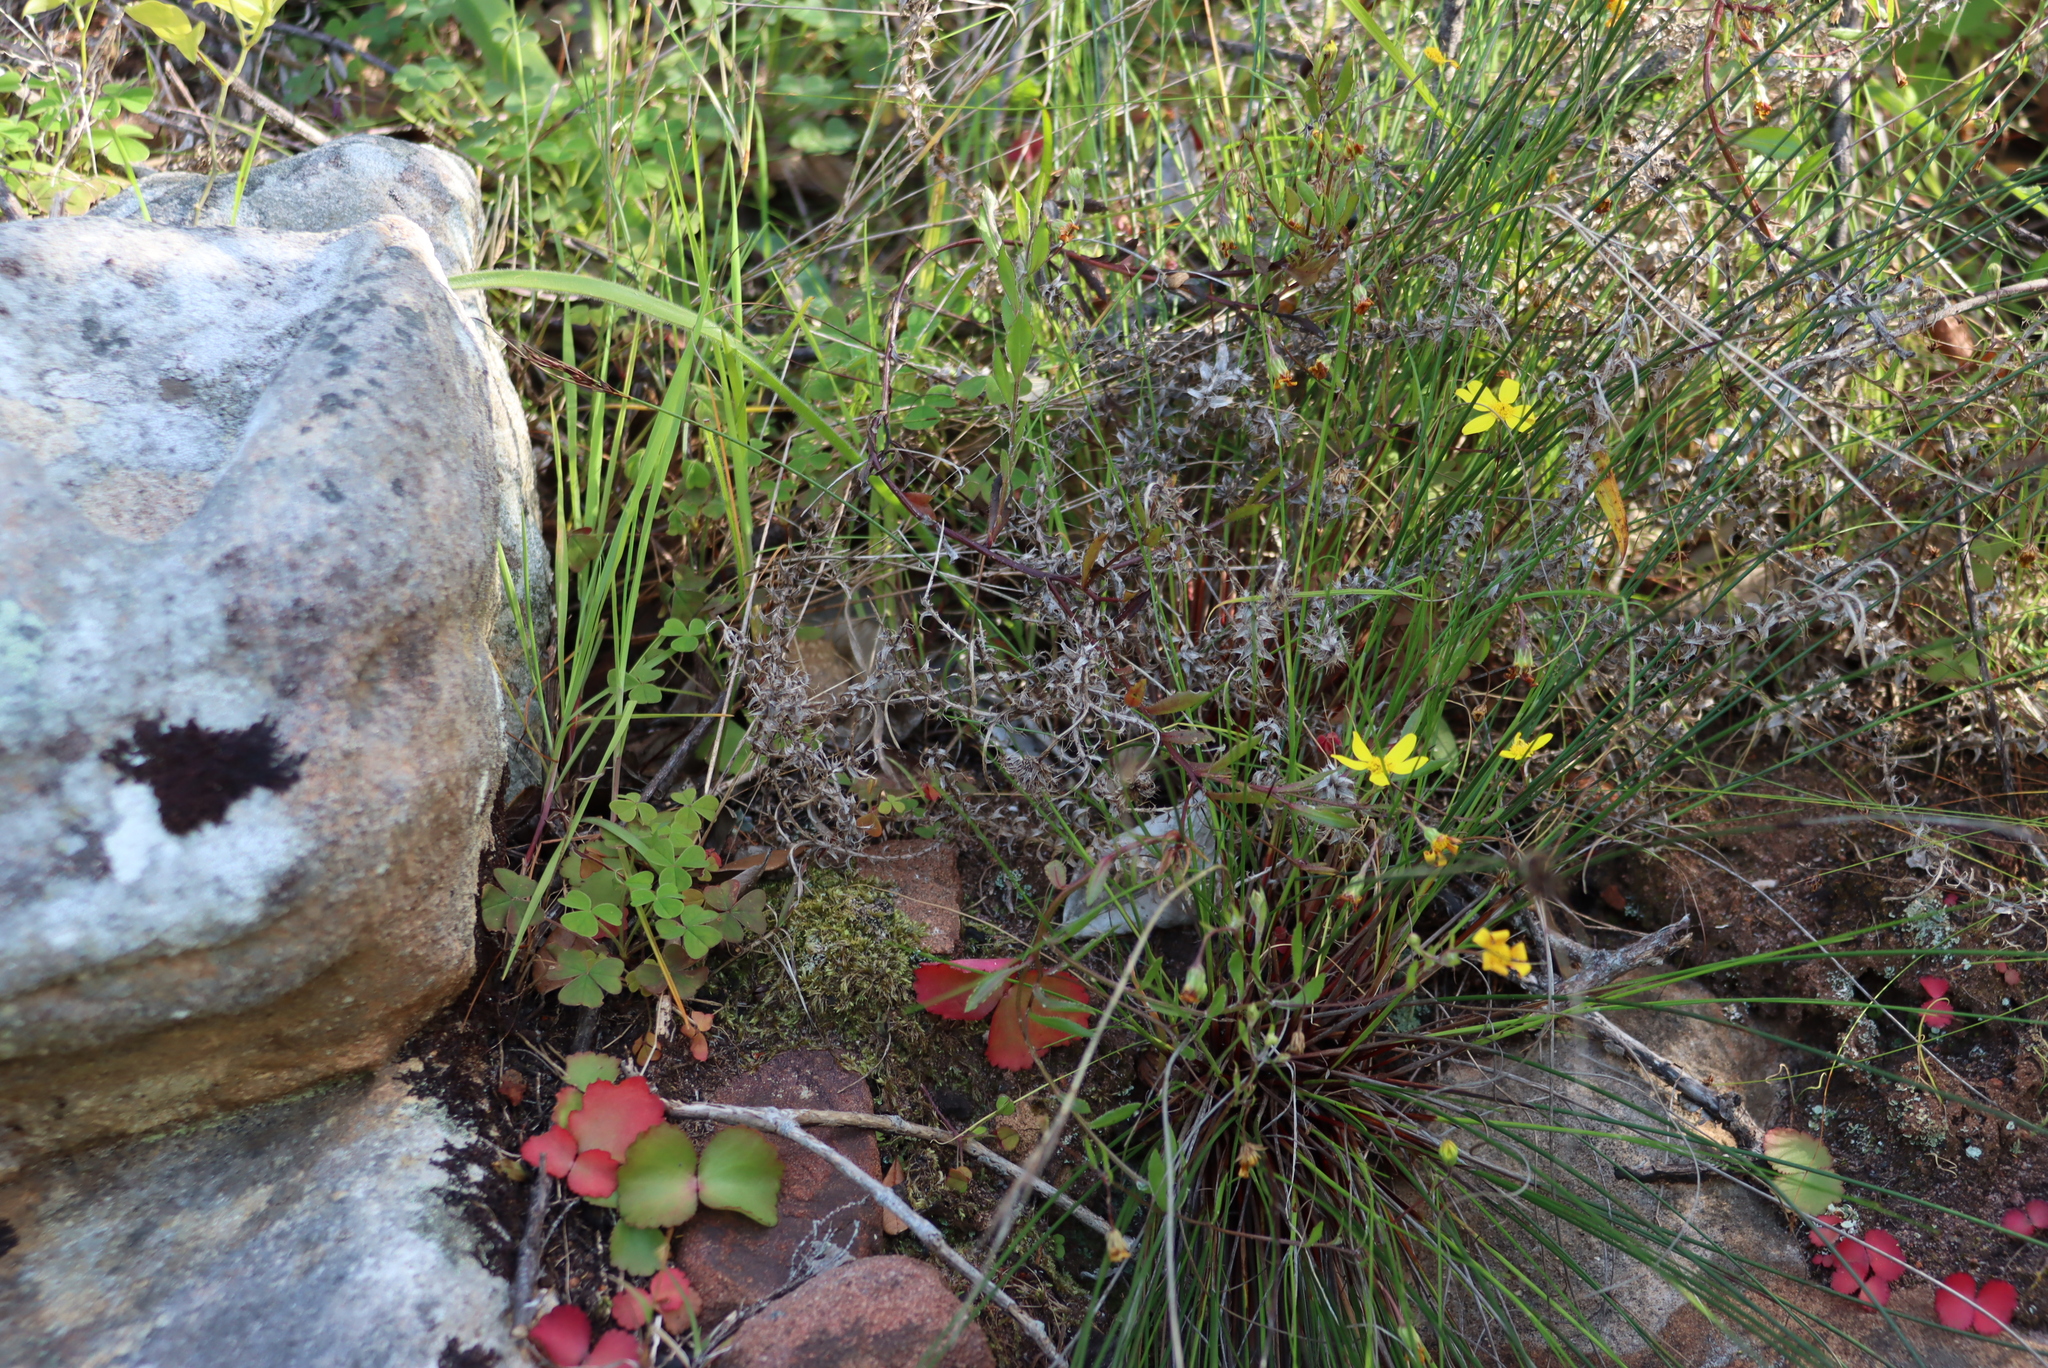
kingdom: Plantae
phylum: Tracheophyta
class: Magnoliopsida
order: Asterales
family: Asteraceae
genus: Osteospermum
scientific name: Osteospermum ciliatum
